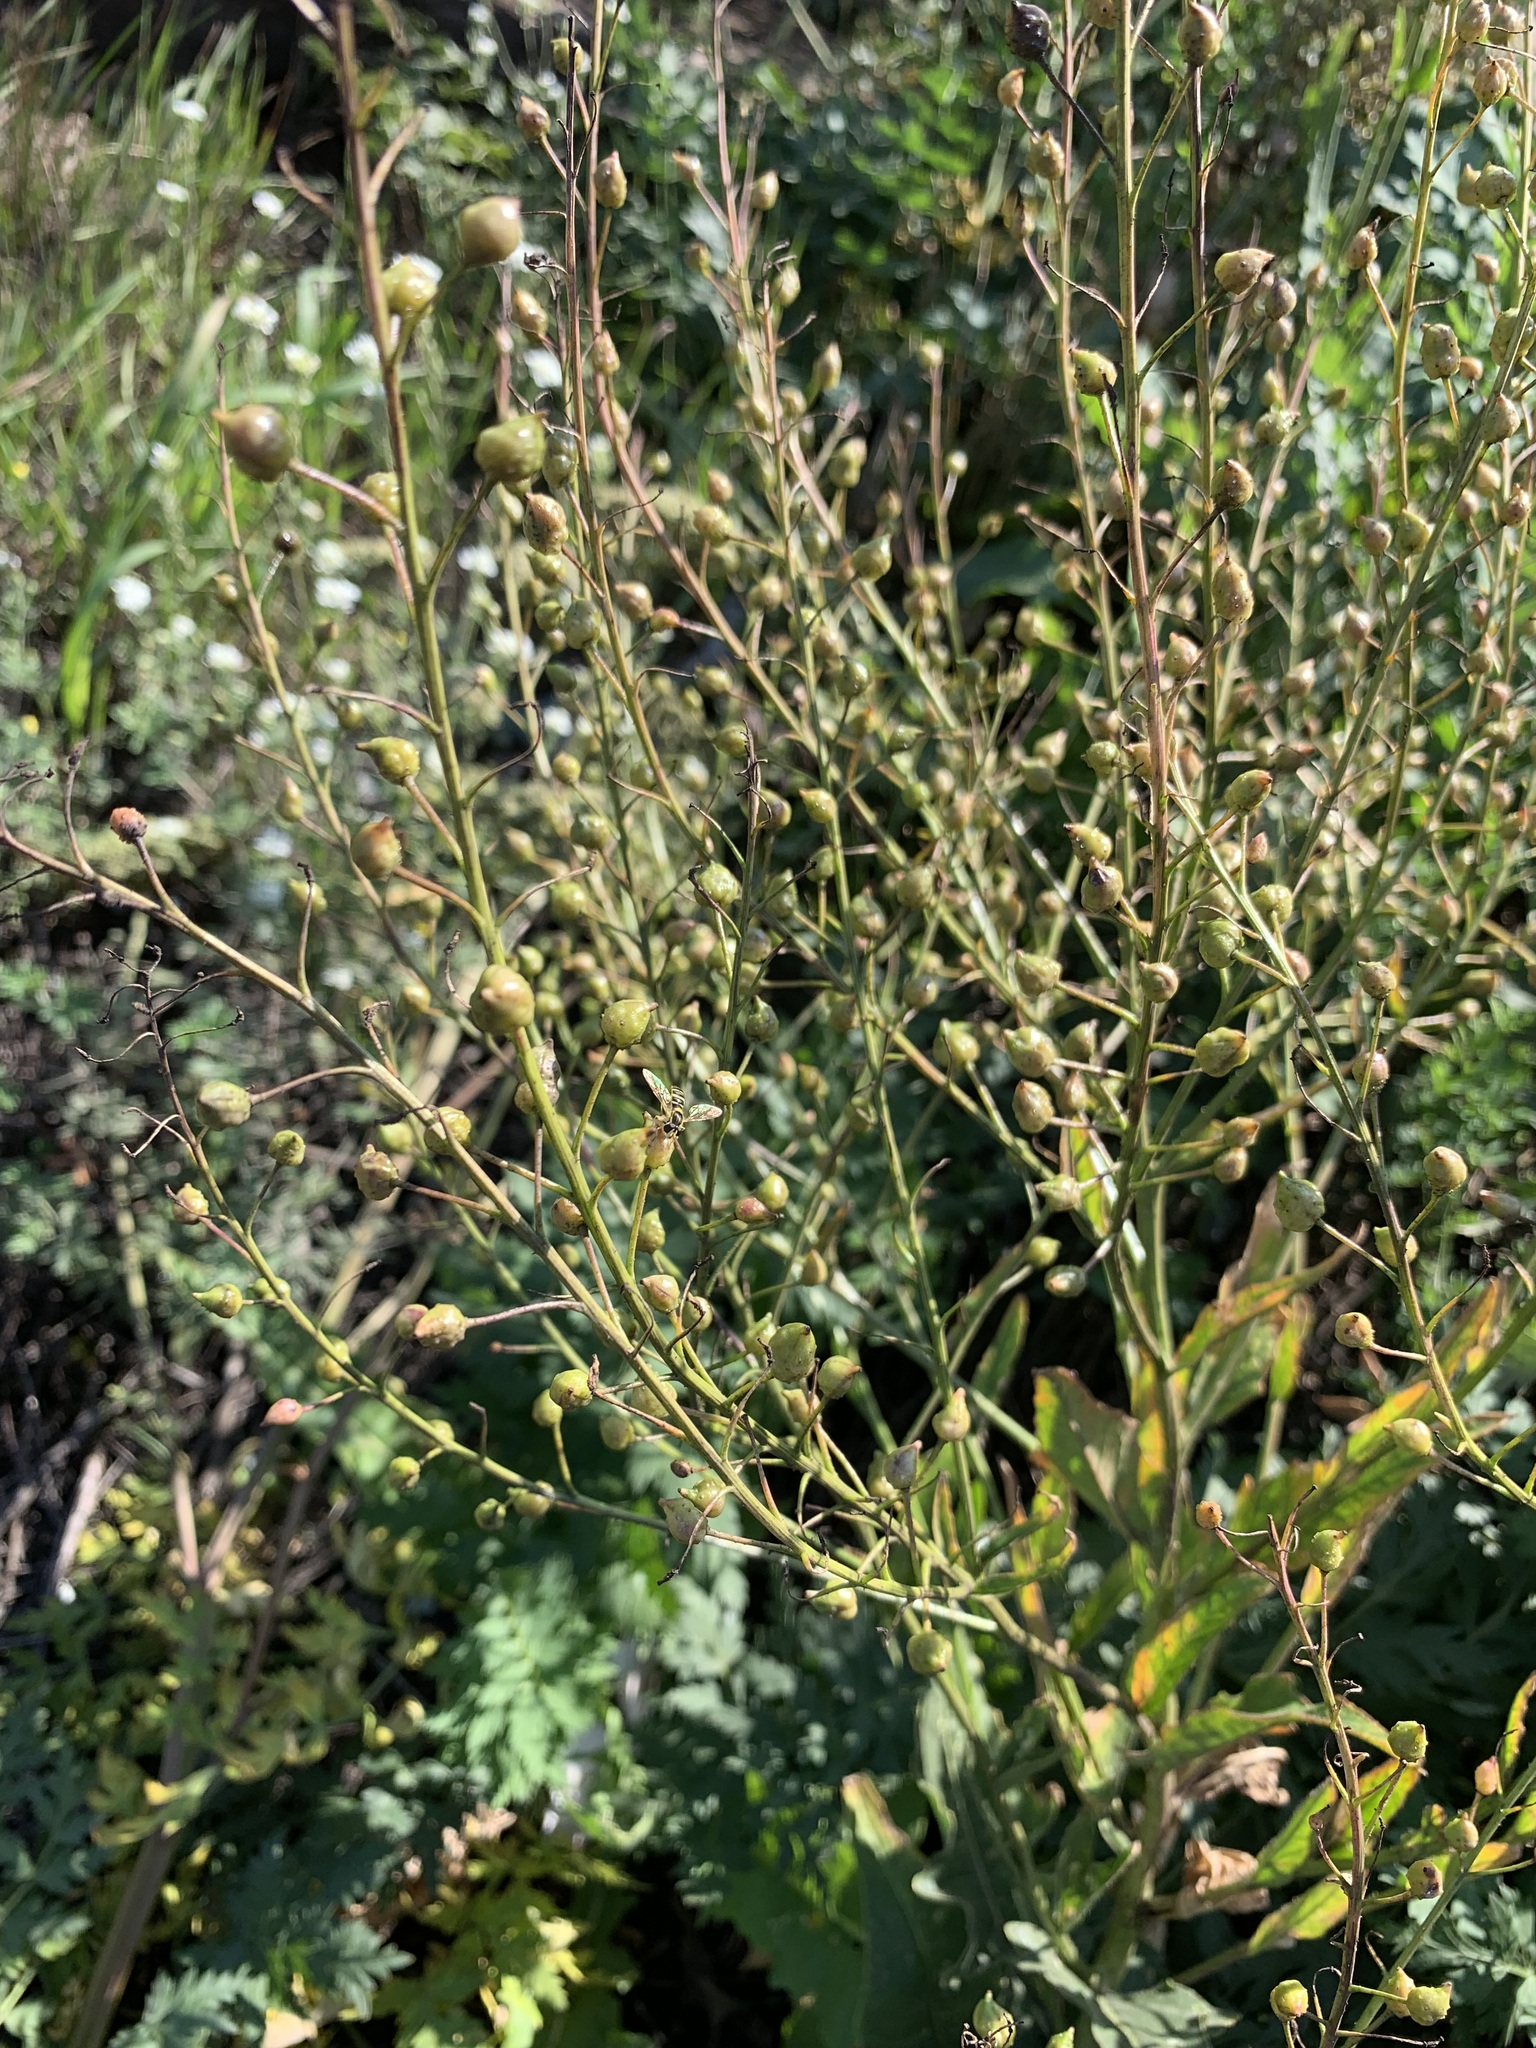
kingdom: Plantae
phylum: Tracheophyta
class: Magnoliopsida
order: Brassicales
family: Brassicaceae
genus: Bunias
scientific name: Bunias orientalis
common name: Warty-cabbage
